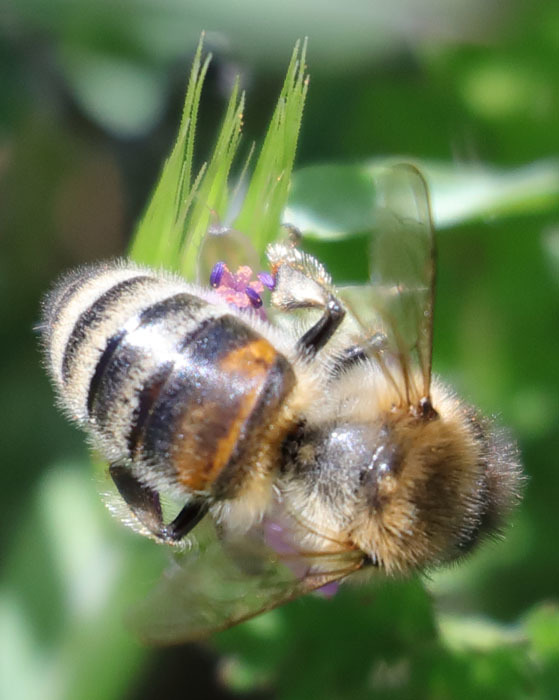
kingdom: Animalia
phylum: Arthropoda
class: Insecta
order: Hymenoptera
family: Apidae
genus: Apis
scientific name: Apis mellifera
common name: Honey bee
